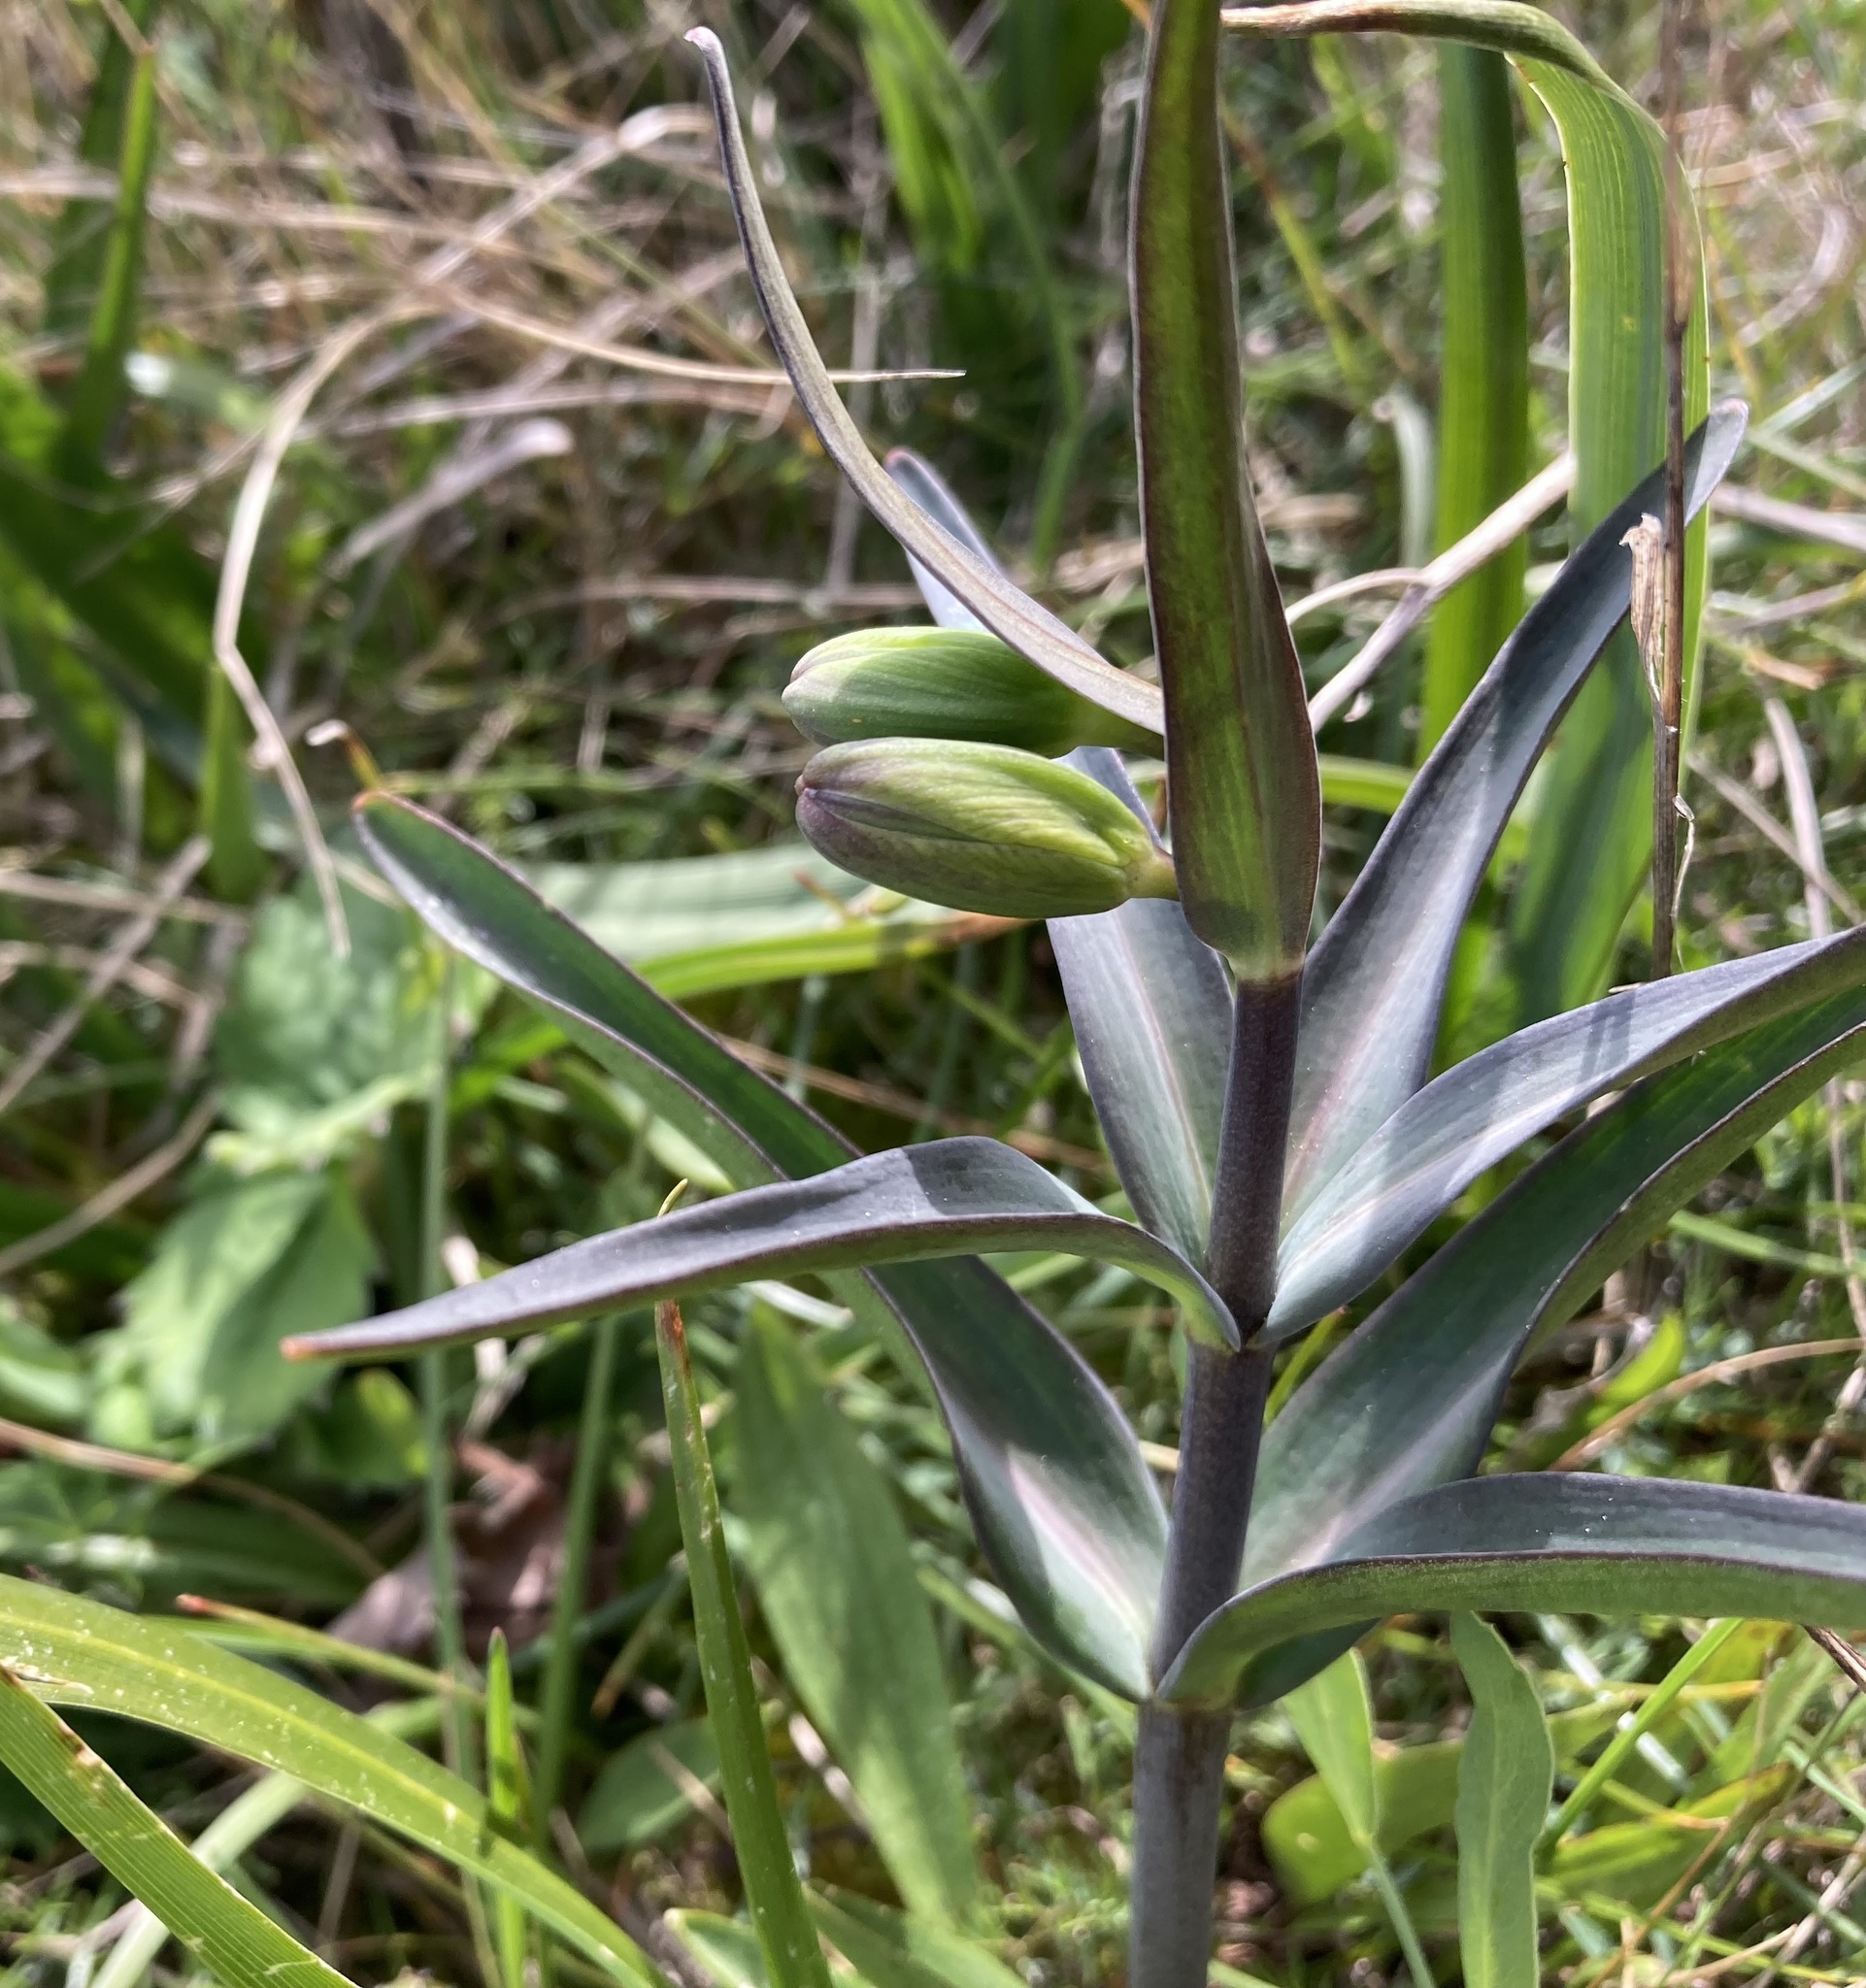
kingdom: Plantae
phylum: Tracheophyta
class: Liliopsida
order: Liliales
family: Liliaceae
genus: Fritillaria
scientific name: Fritillaria affinis
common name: Ojai fritillary
